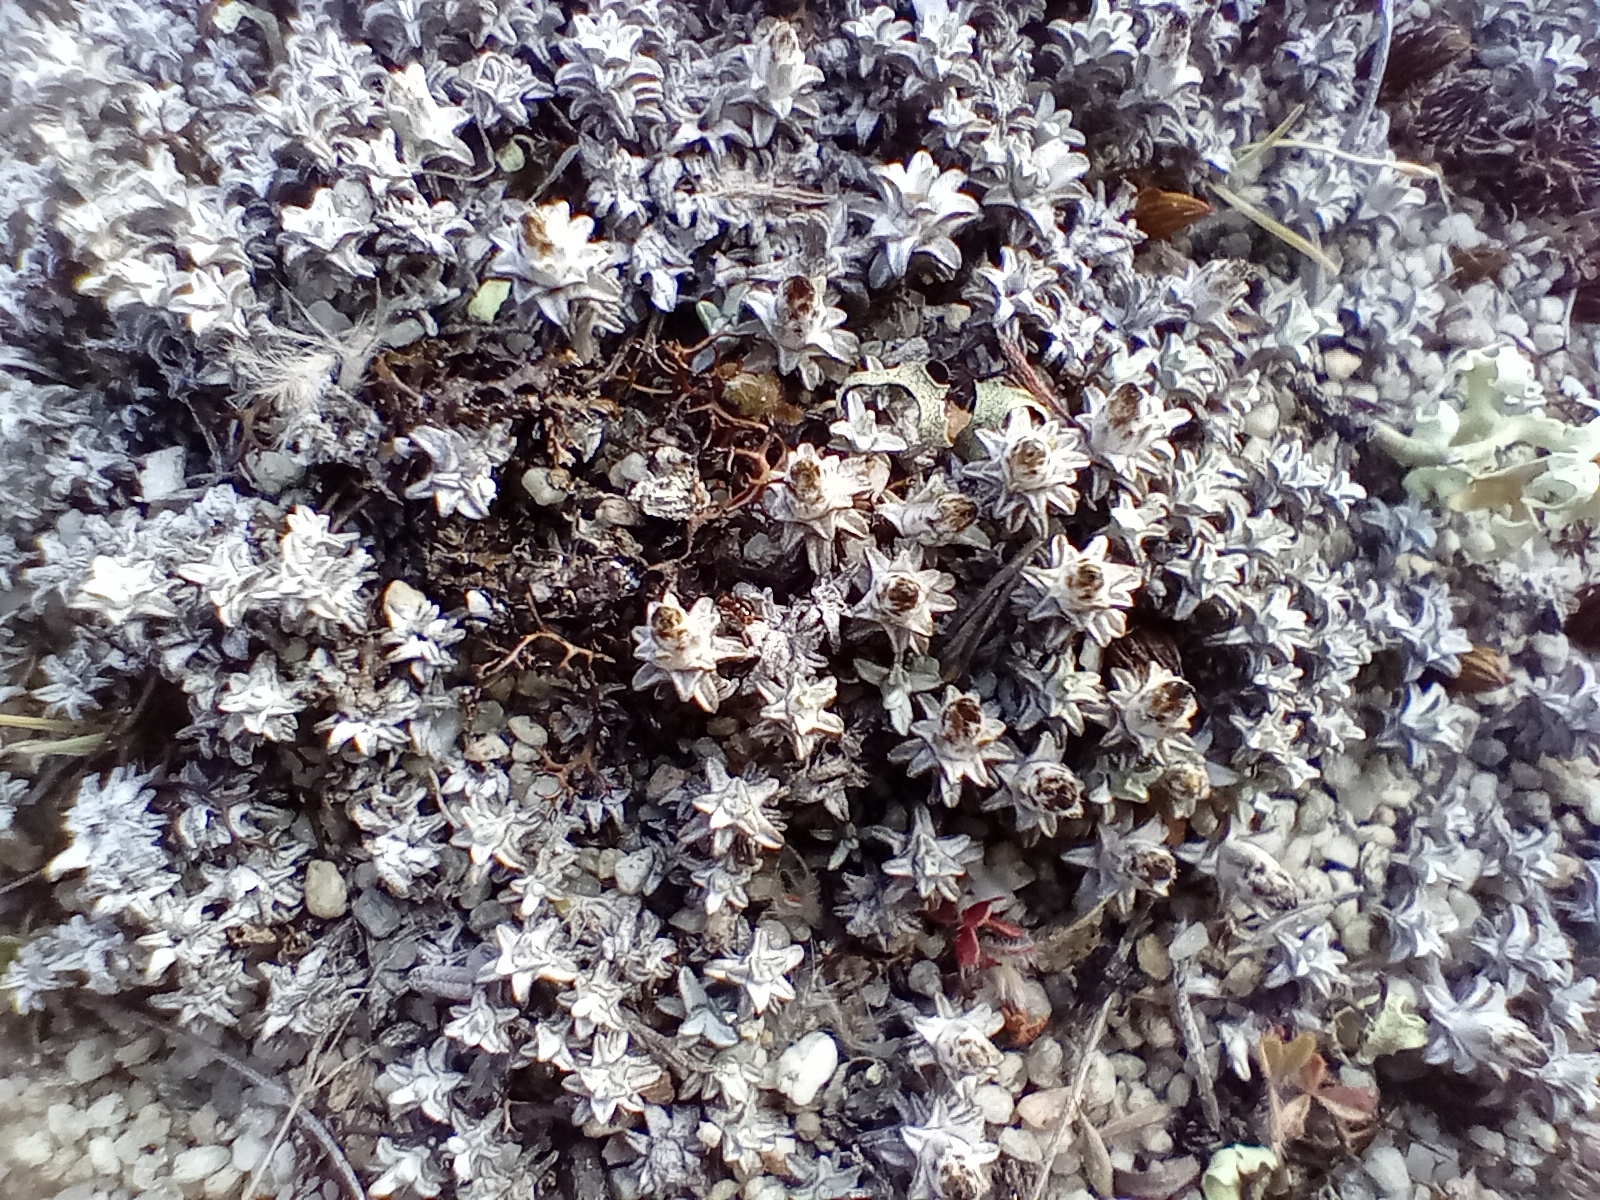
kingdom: Plantae
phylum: Tracheophyta
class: Magnoliopsida
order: Asterales
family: Asteraceae
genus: Raoulia
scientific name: Raoulia beauverdii
